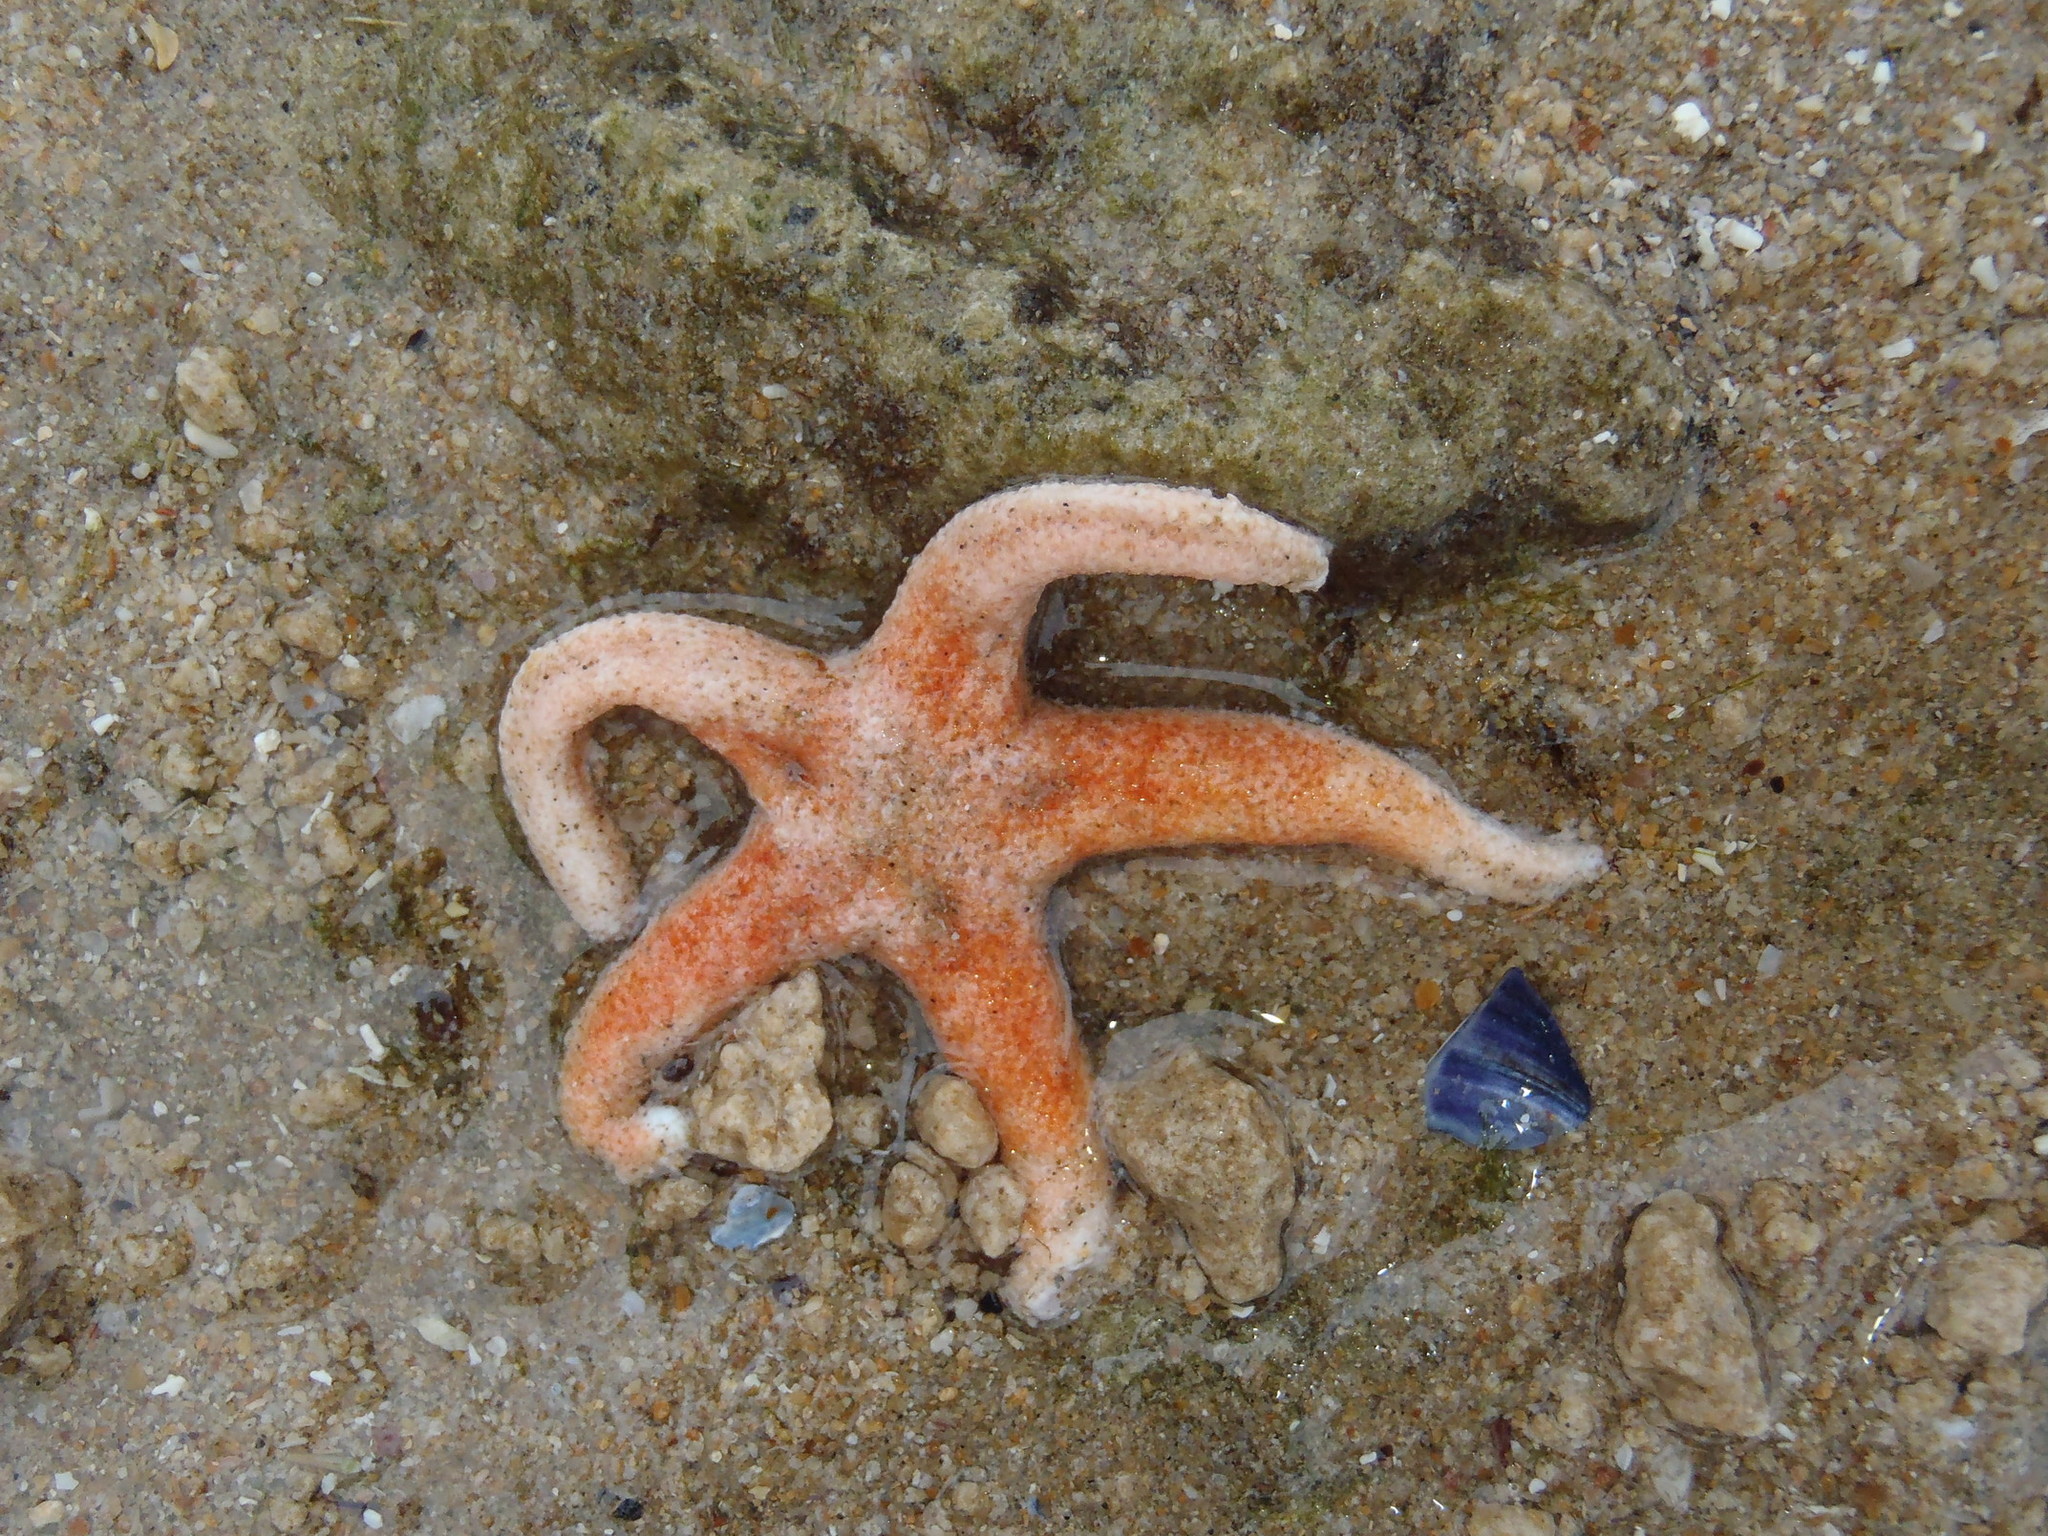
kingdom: Animalia
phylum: Echinodermata
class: Asteroidea
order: Valvatida
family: Asterinidae
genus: Callopatiria
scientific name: Callopatiria granifera
